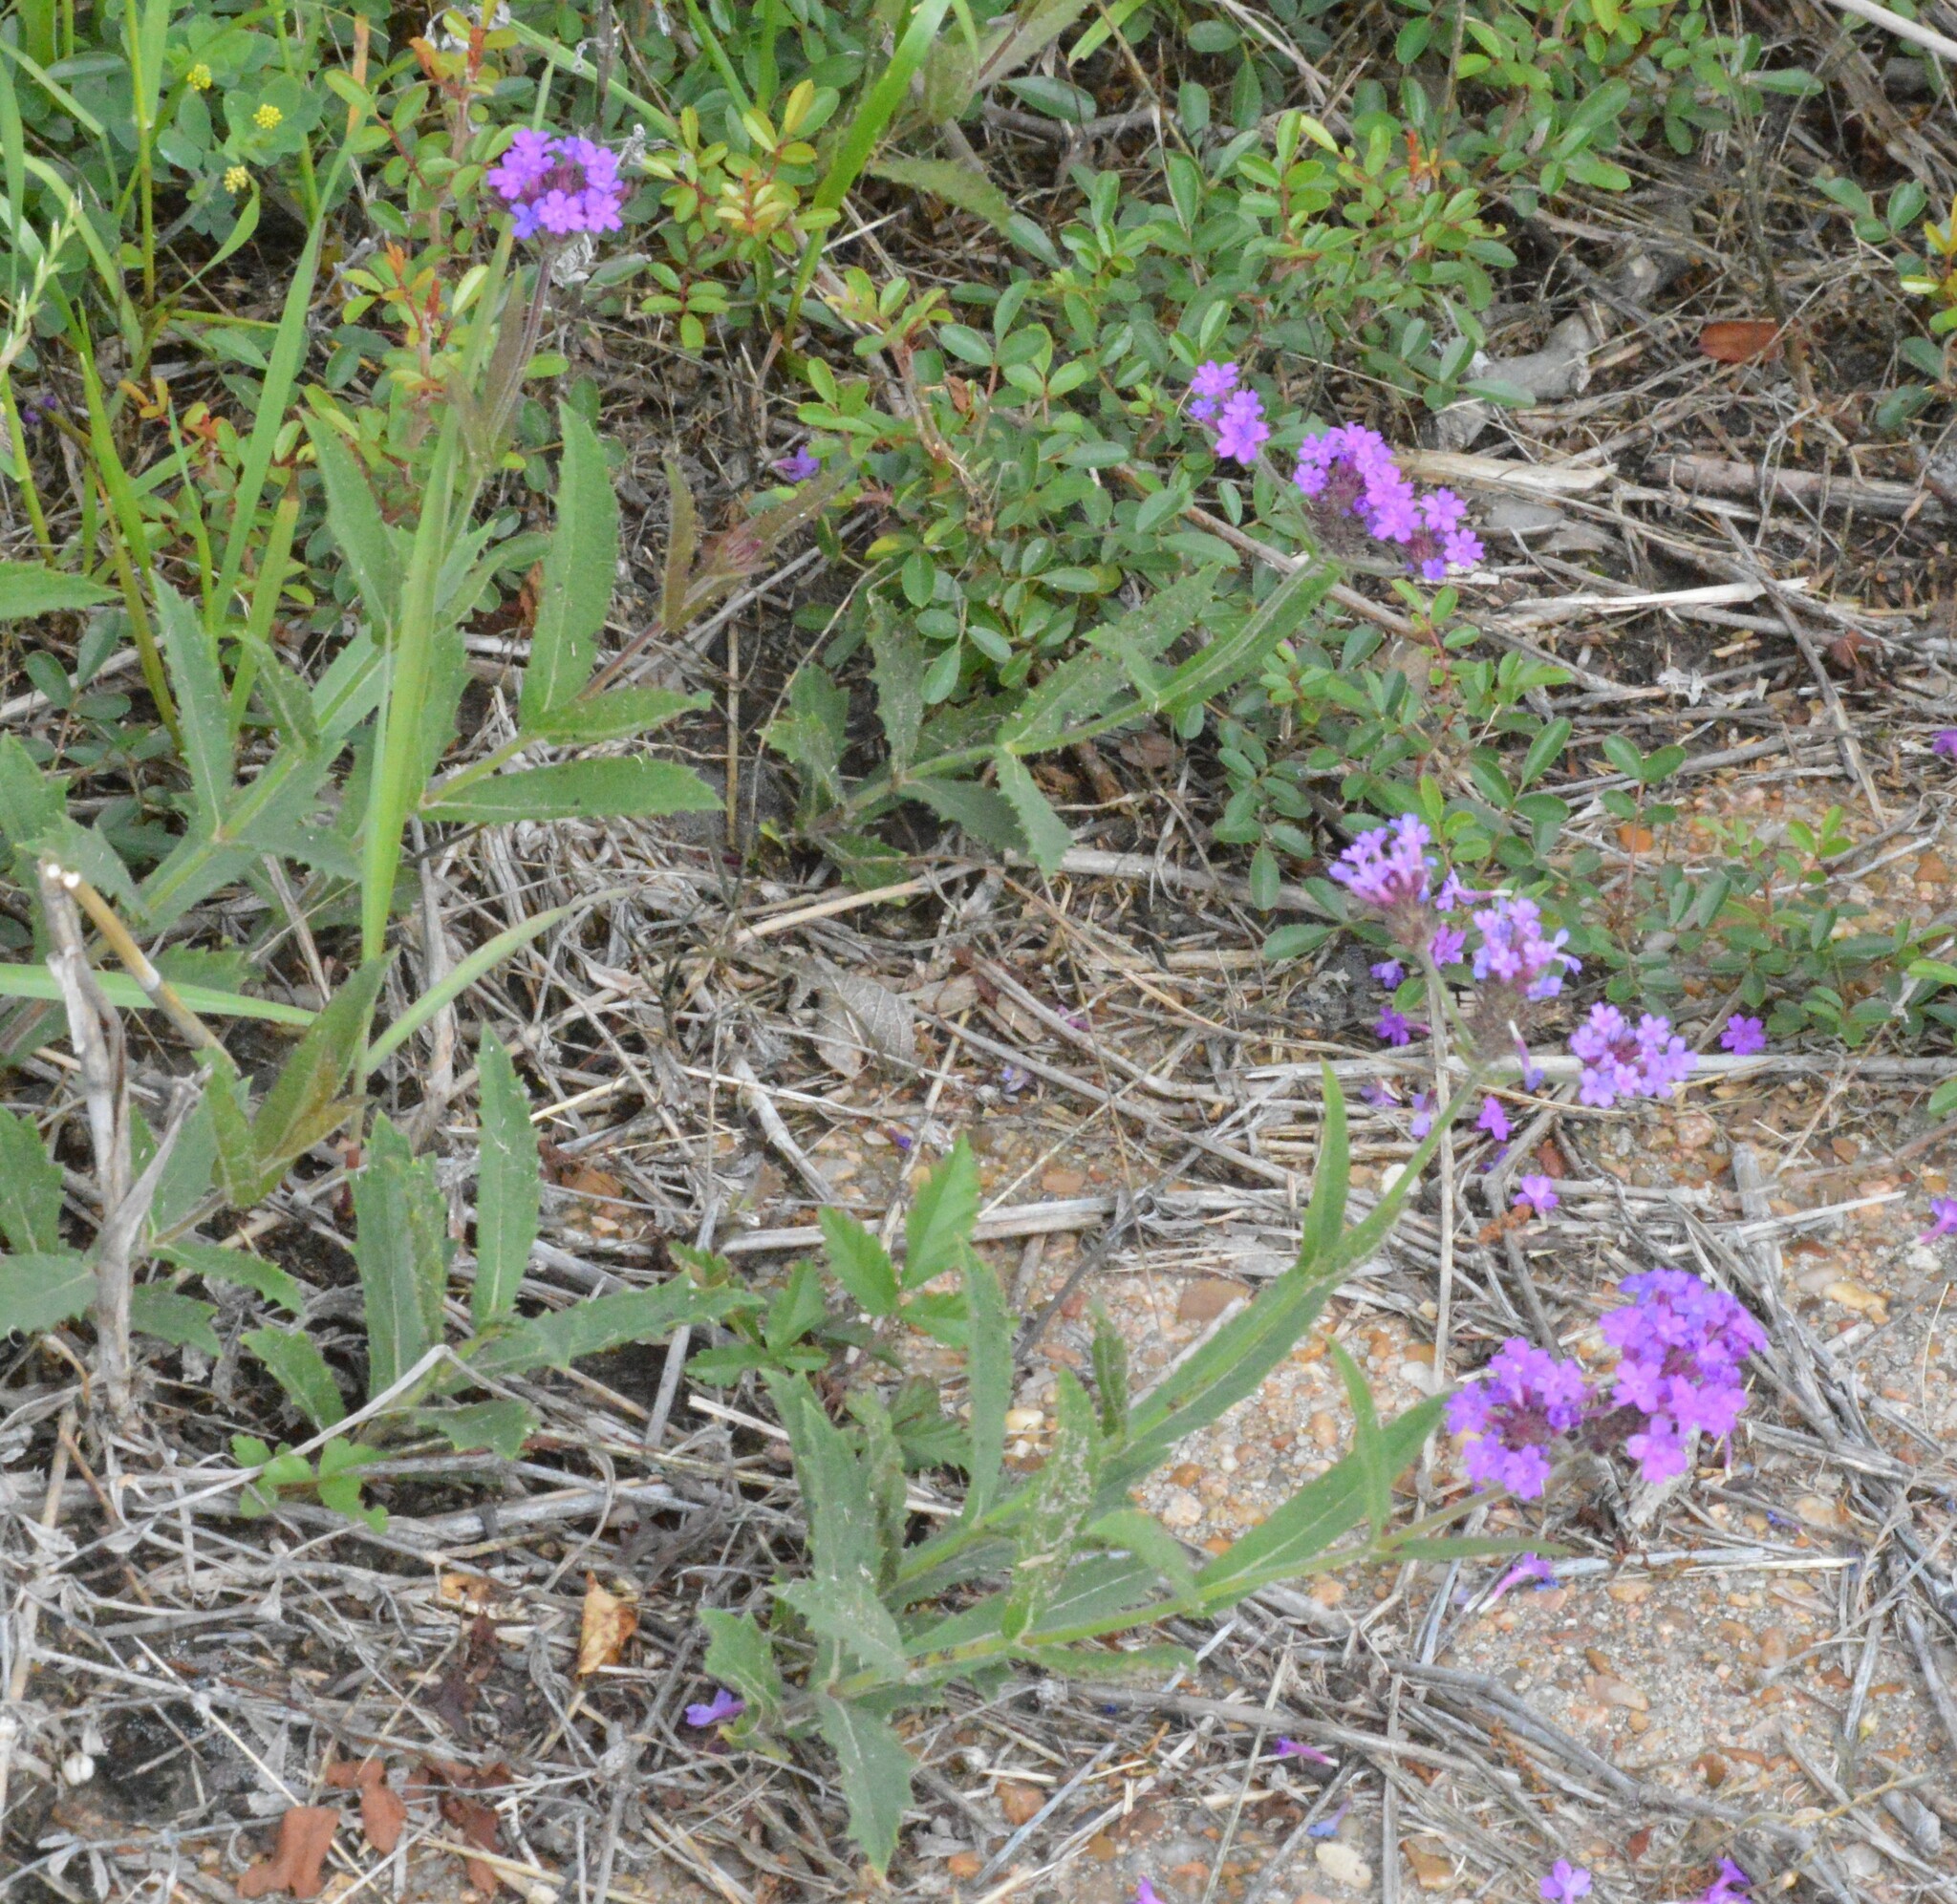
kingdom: Plantae
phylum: Tracheophyta
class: Magnoliopsida
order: Lamiales
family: Verbenaceae
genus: Verbena
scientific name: Verbena rigida
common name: Slender vervain
